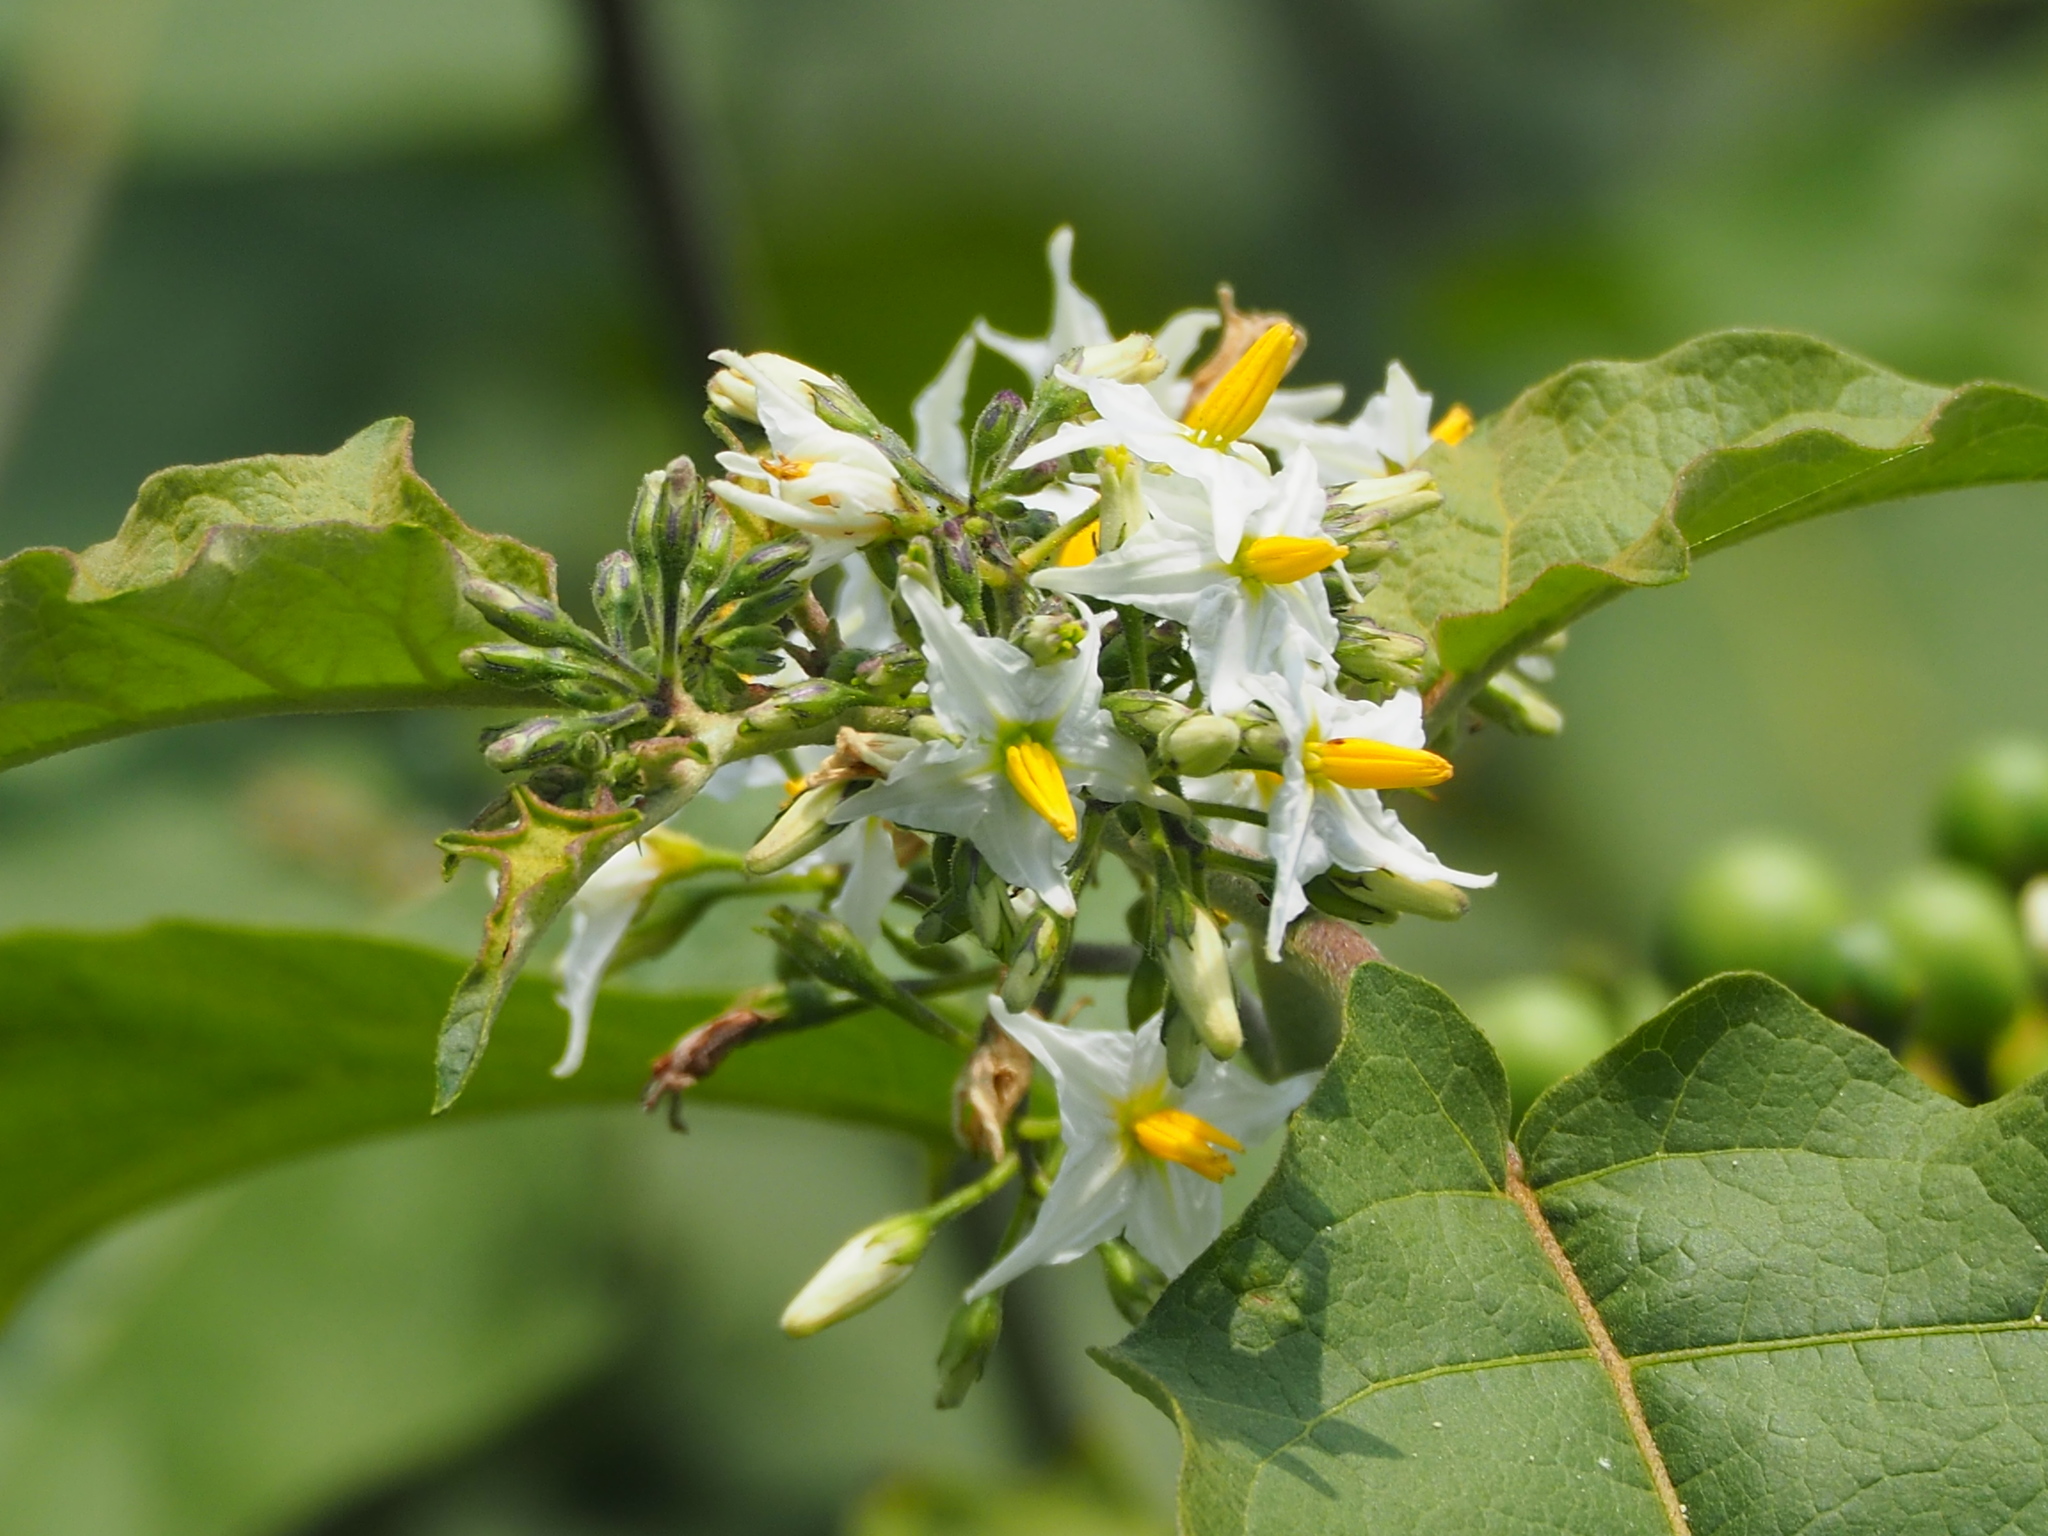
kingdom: Plantae
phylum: Tracheophyta
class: Magnoliopsida
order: Solanales
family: Solanaceae
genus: Solanum
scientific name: Solanum torvum
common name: Turkey berry
